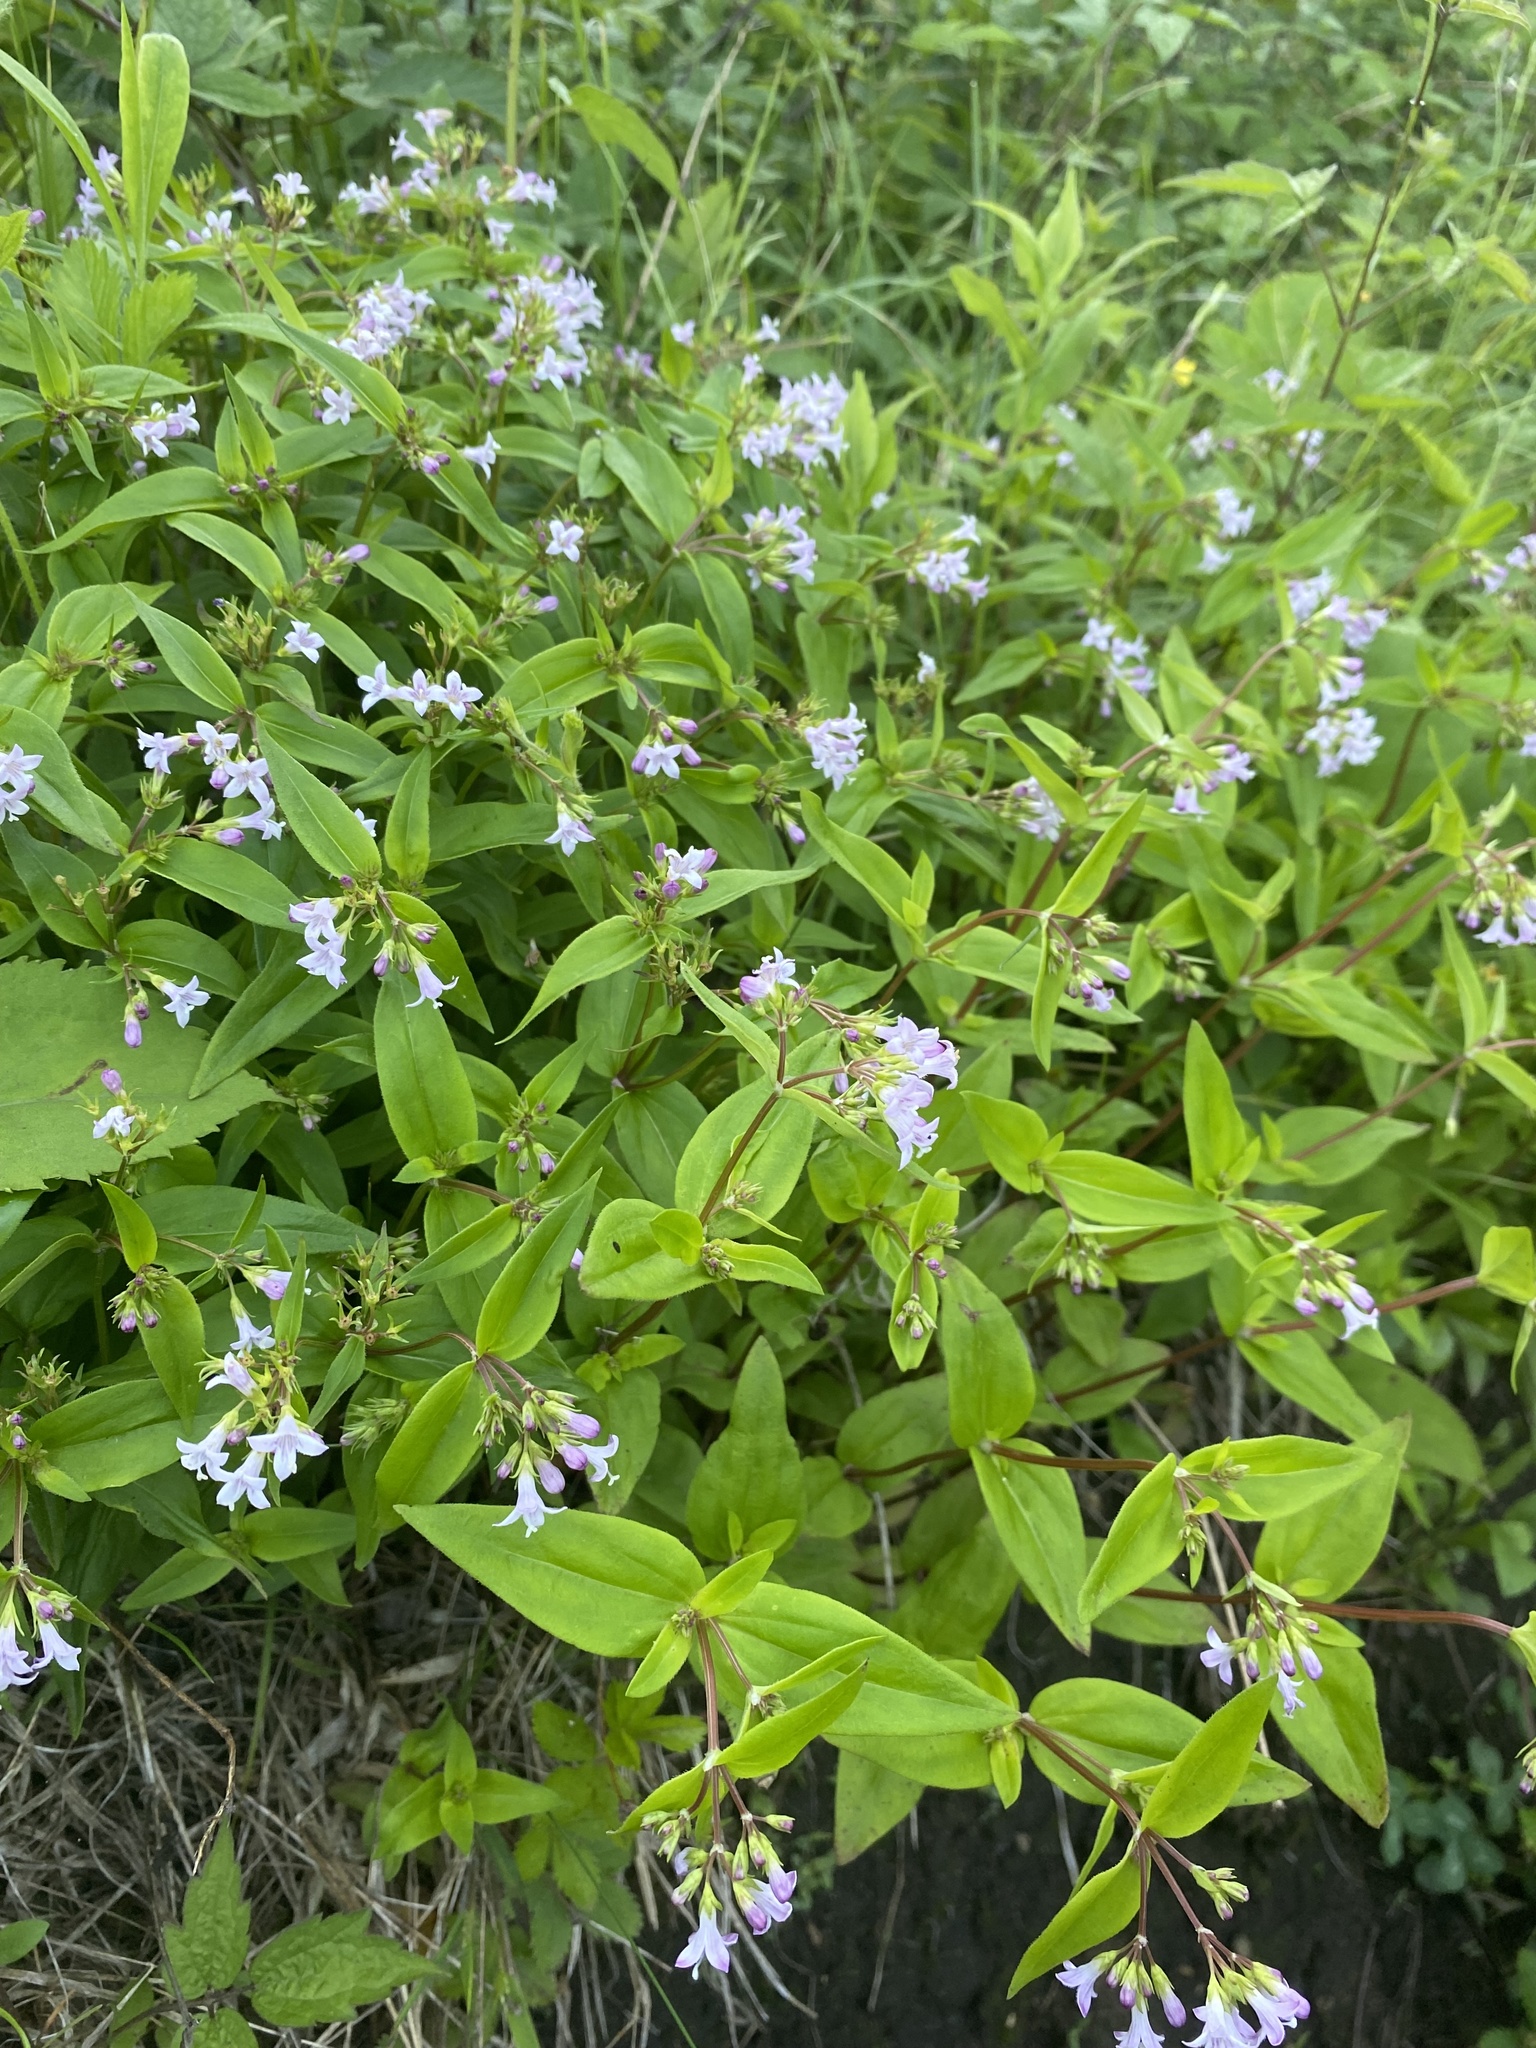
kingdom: Plantae
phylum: Tracheophyta
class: Magnoliopsida
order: Gentianales
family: Rubiaceae
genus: Houstonia
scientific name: Houstonia purpurea
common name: Summer bluet
